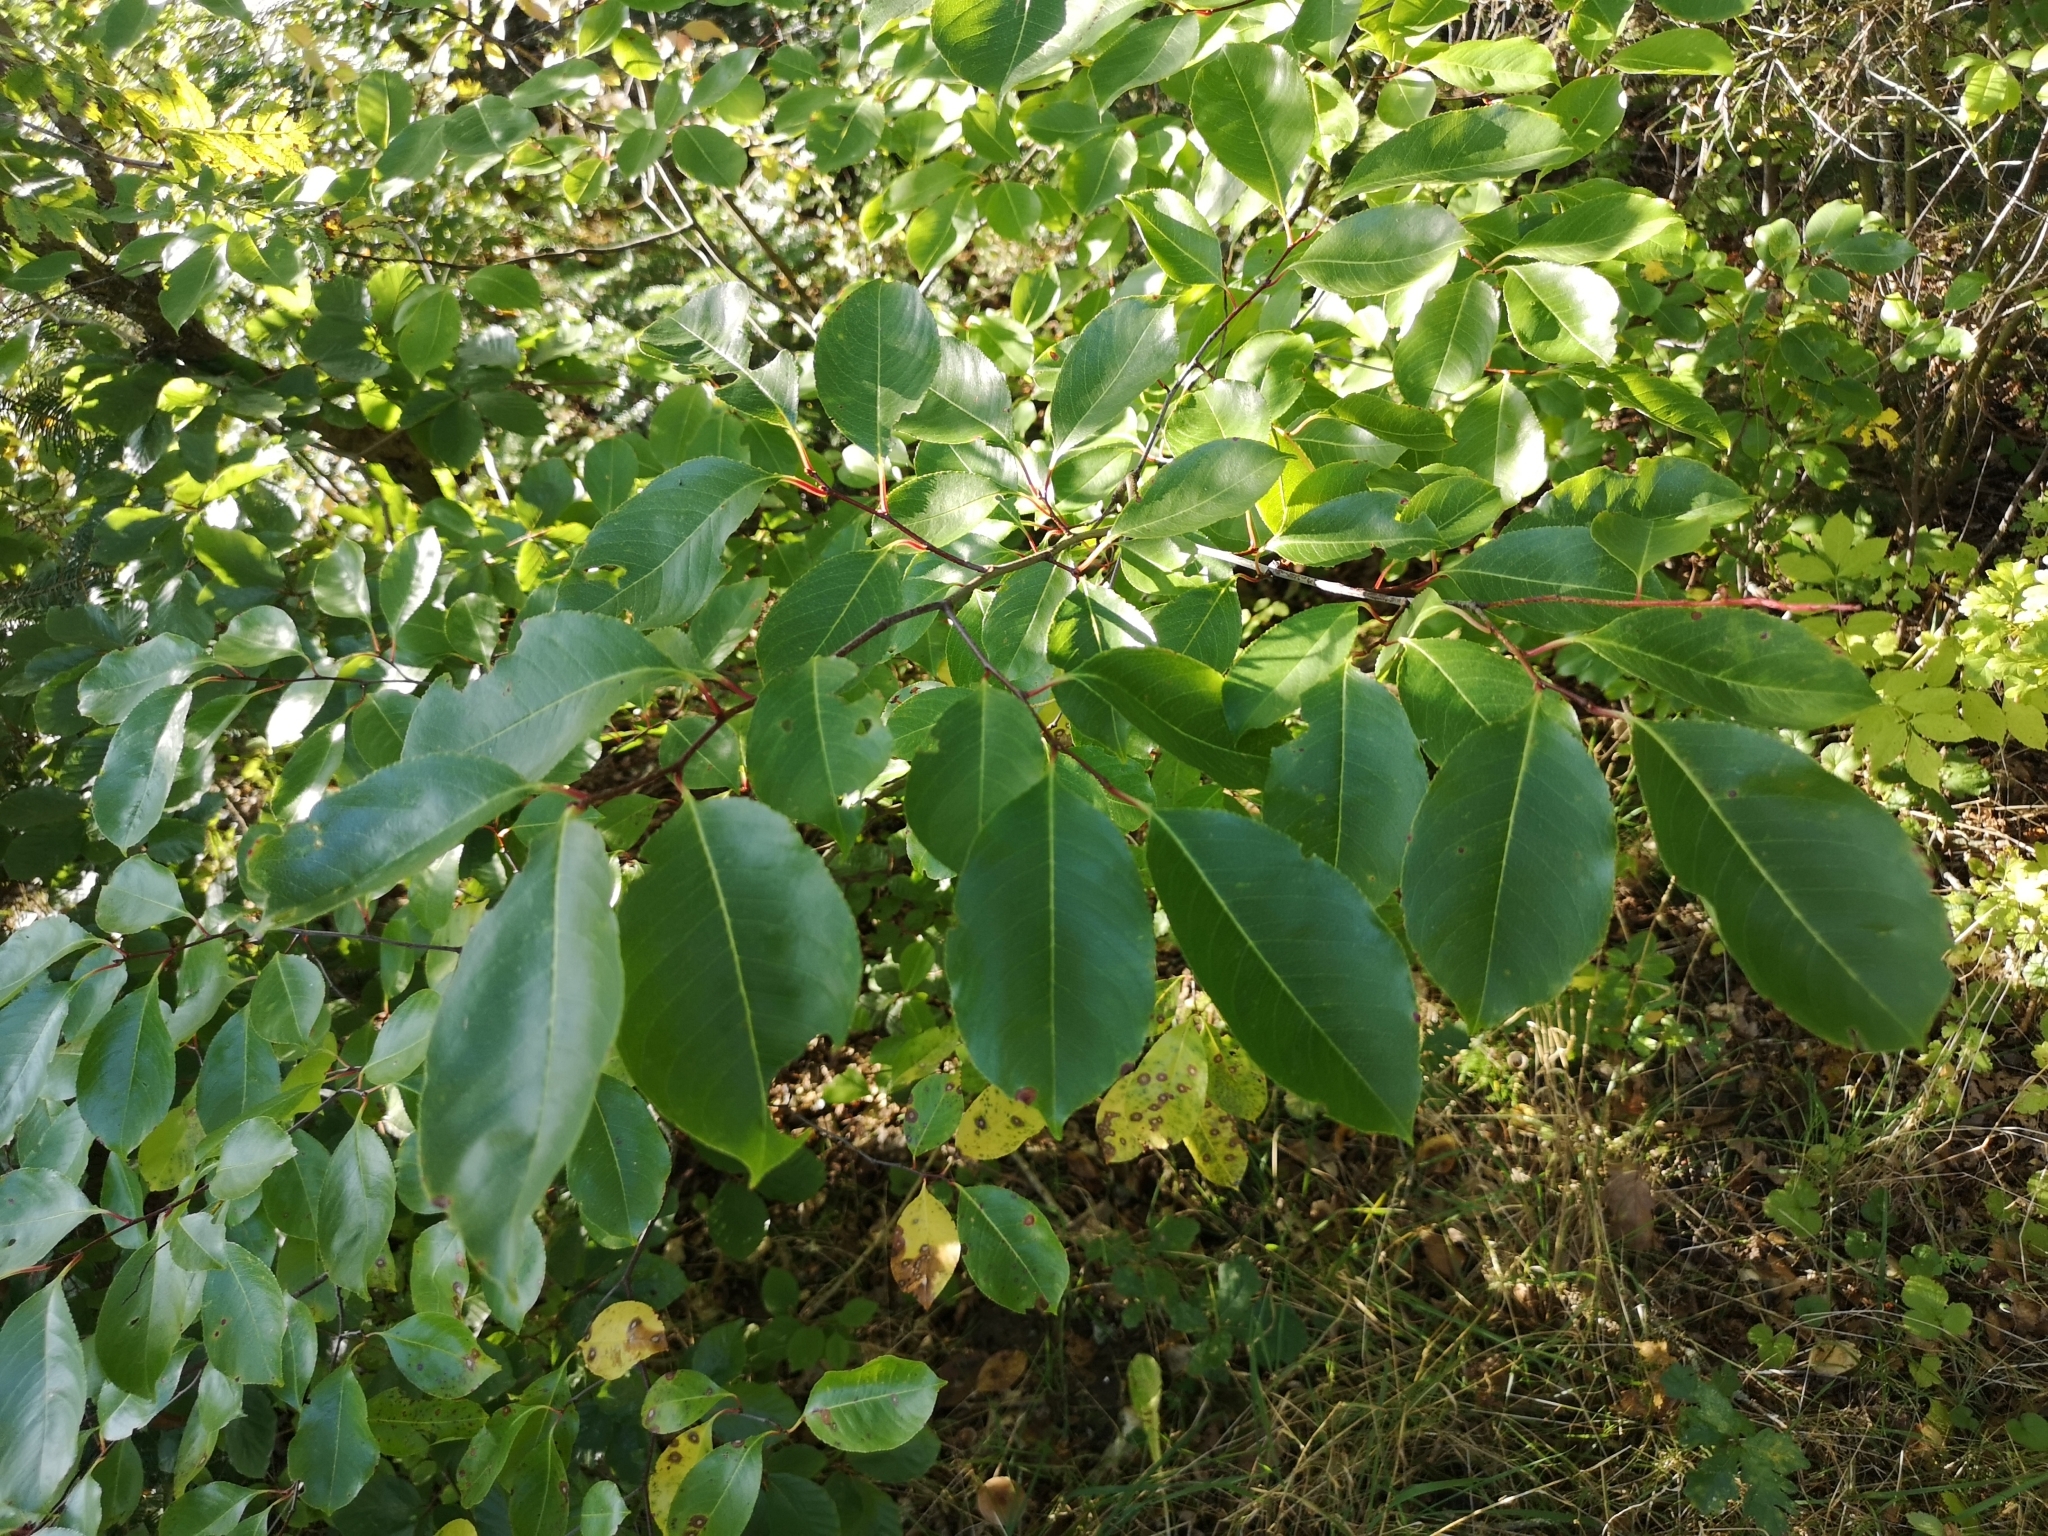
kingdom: Plantae
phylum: Tracheophyta
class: Magnoliopsida
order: Rosales
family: Rosaceae
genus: Prunus
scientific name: Prunus serotina
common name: Black cherry
